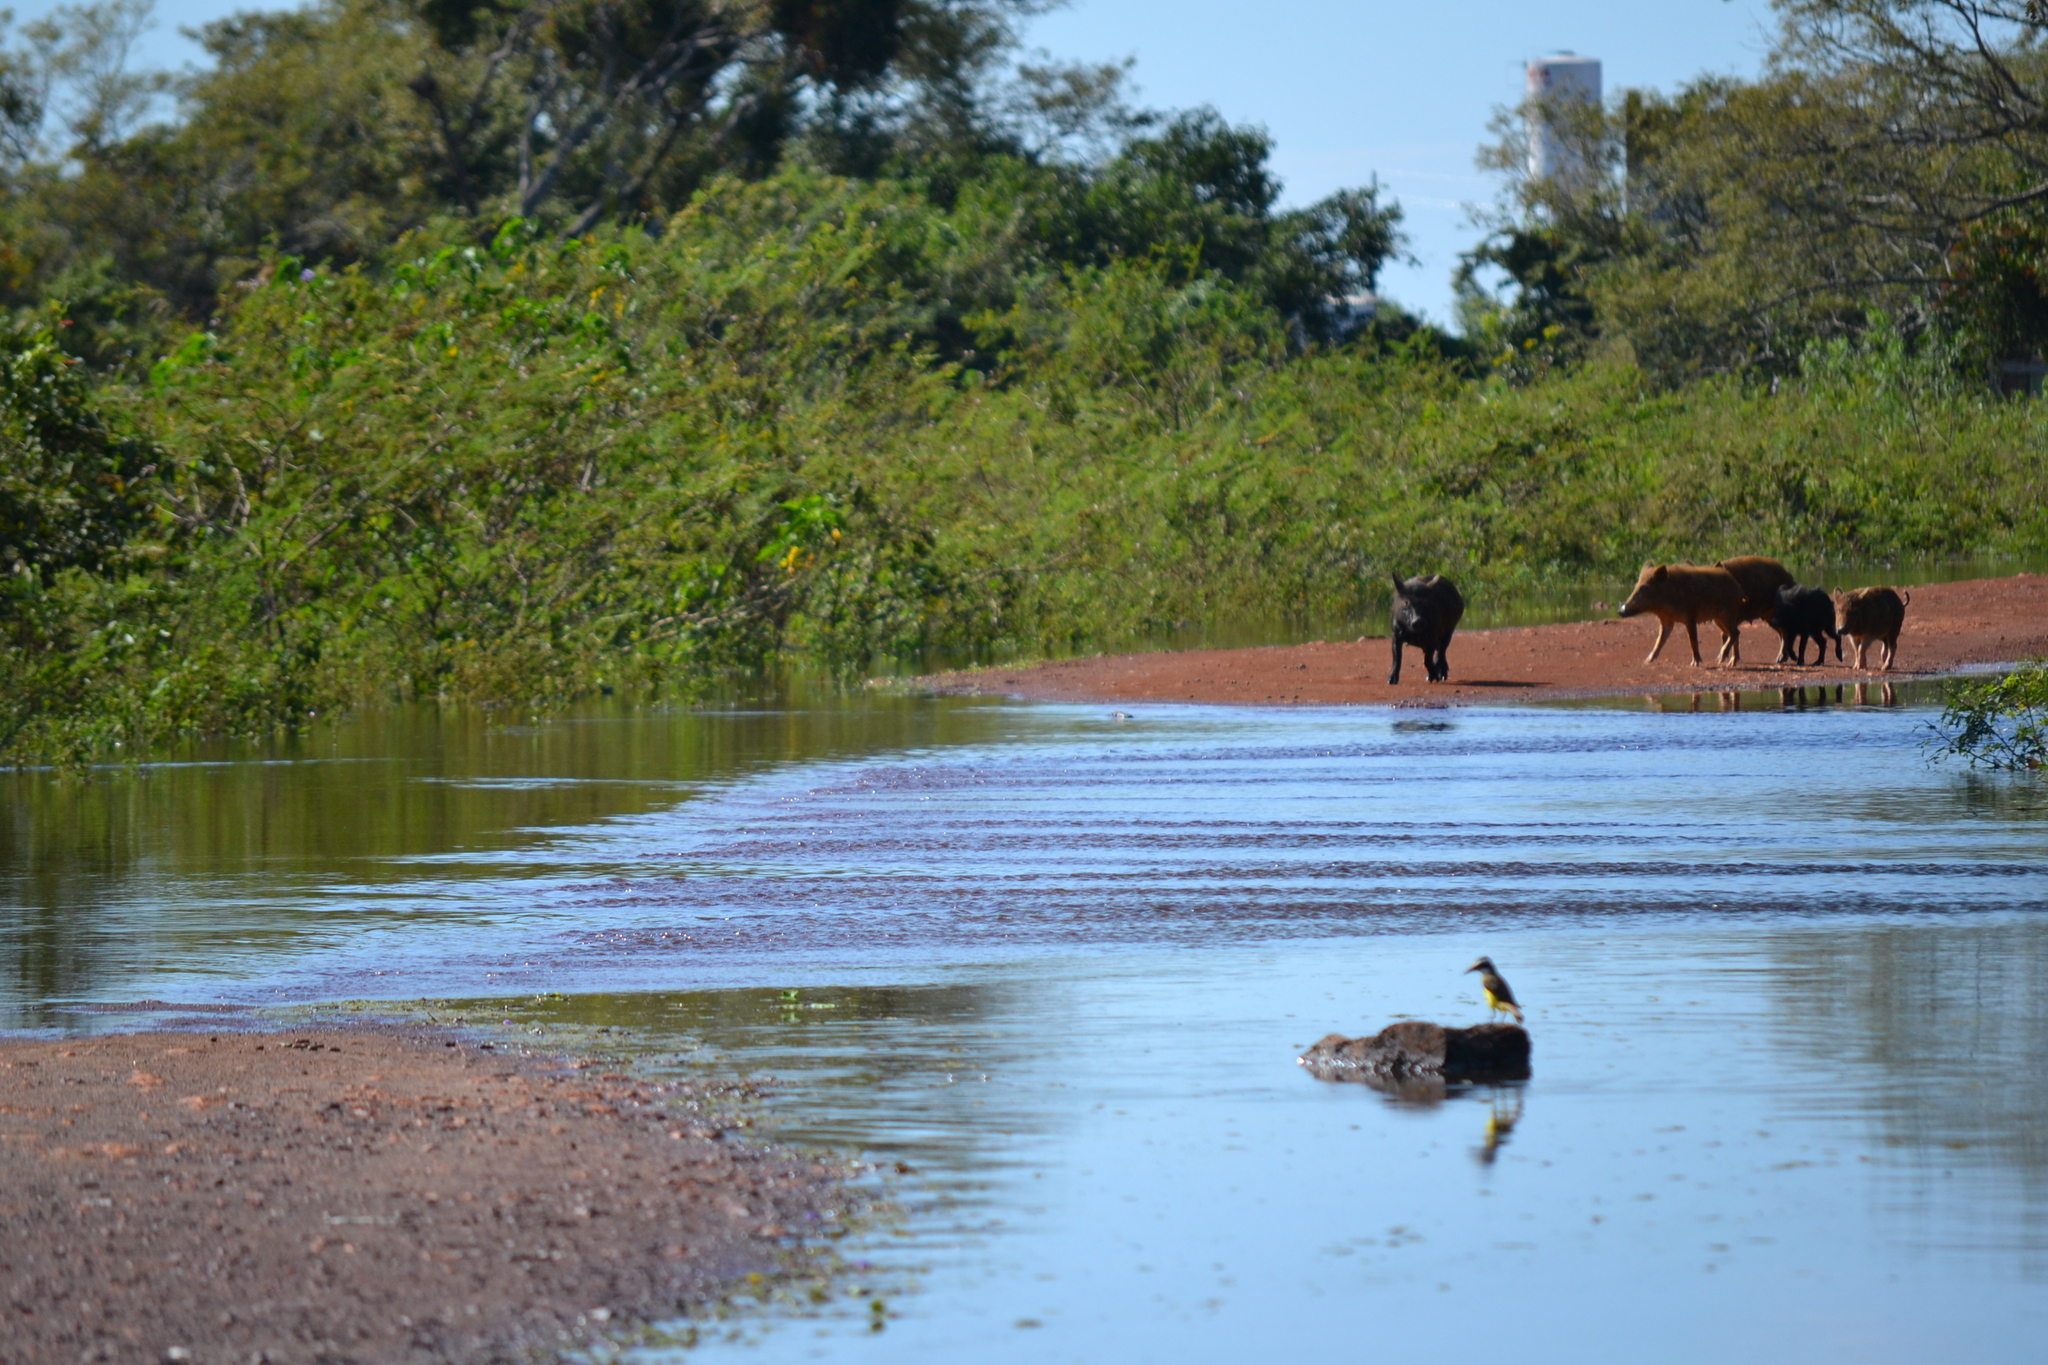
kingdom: Animalia
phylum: Chordata
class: Aves
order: Passeriformes
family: Tyrannidae
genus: Pitangus
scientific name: Pitangus sulphuratus
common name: Great kiskadee
